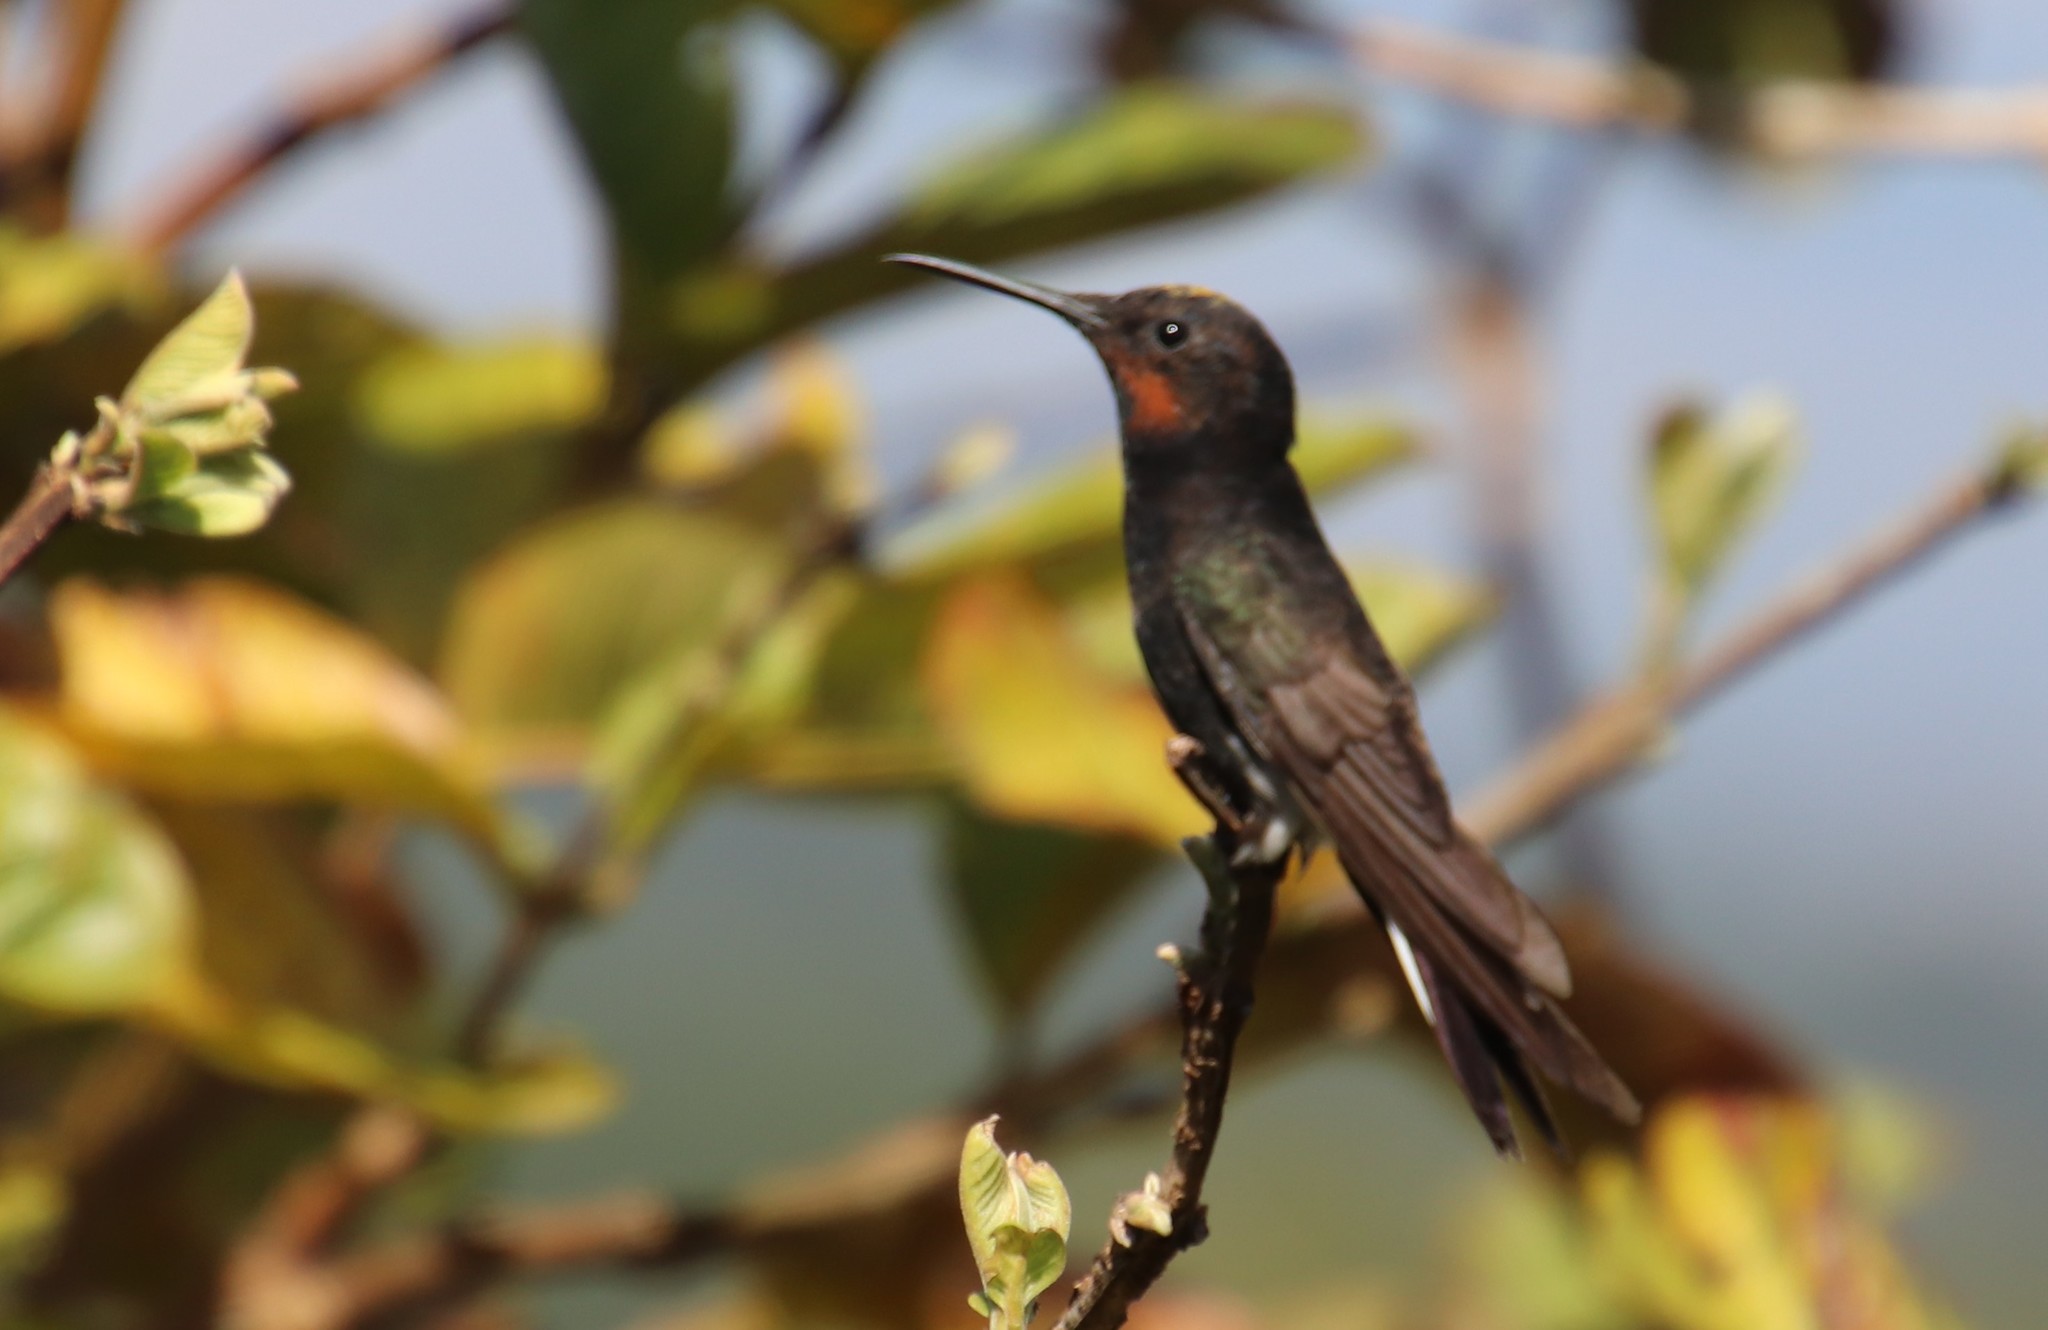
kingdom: Animalia
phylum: Chordata
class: Aves
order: Apodiformes
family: Trochilidae
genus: Florisuga
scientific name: Florisuga fusca
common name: Black jacobin
